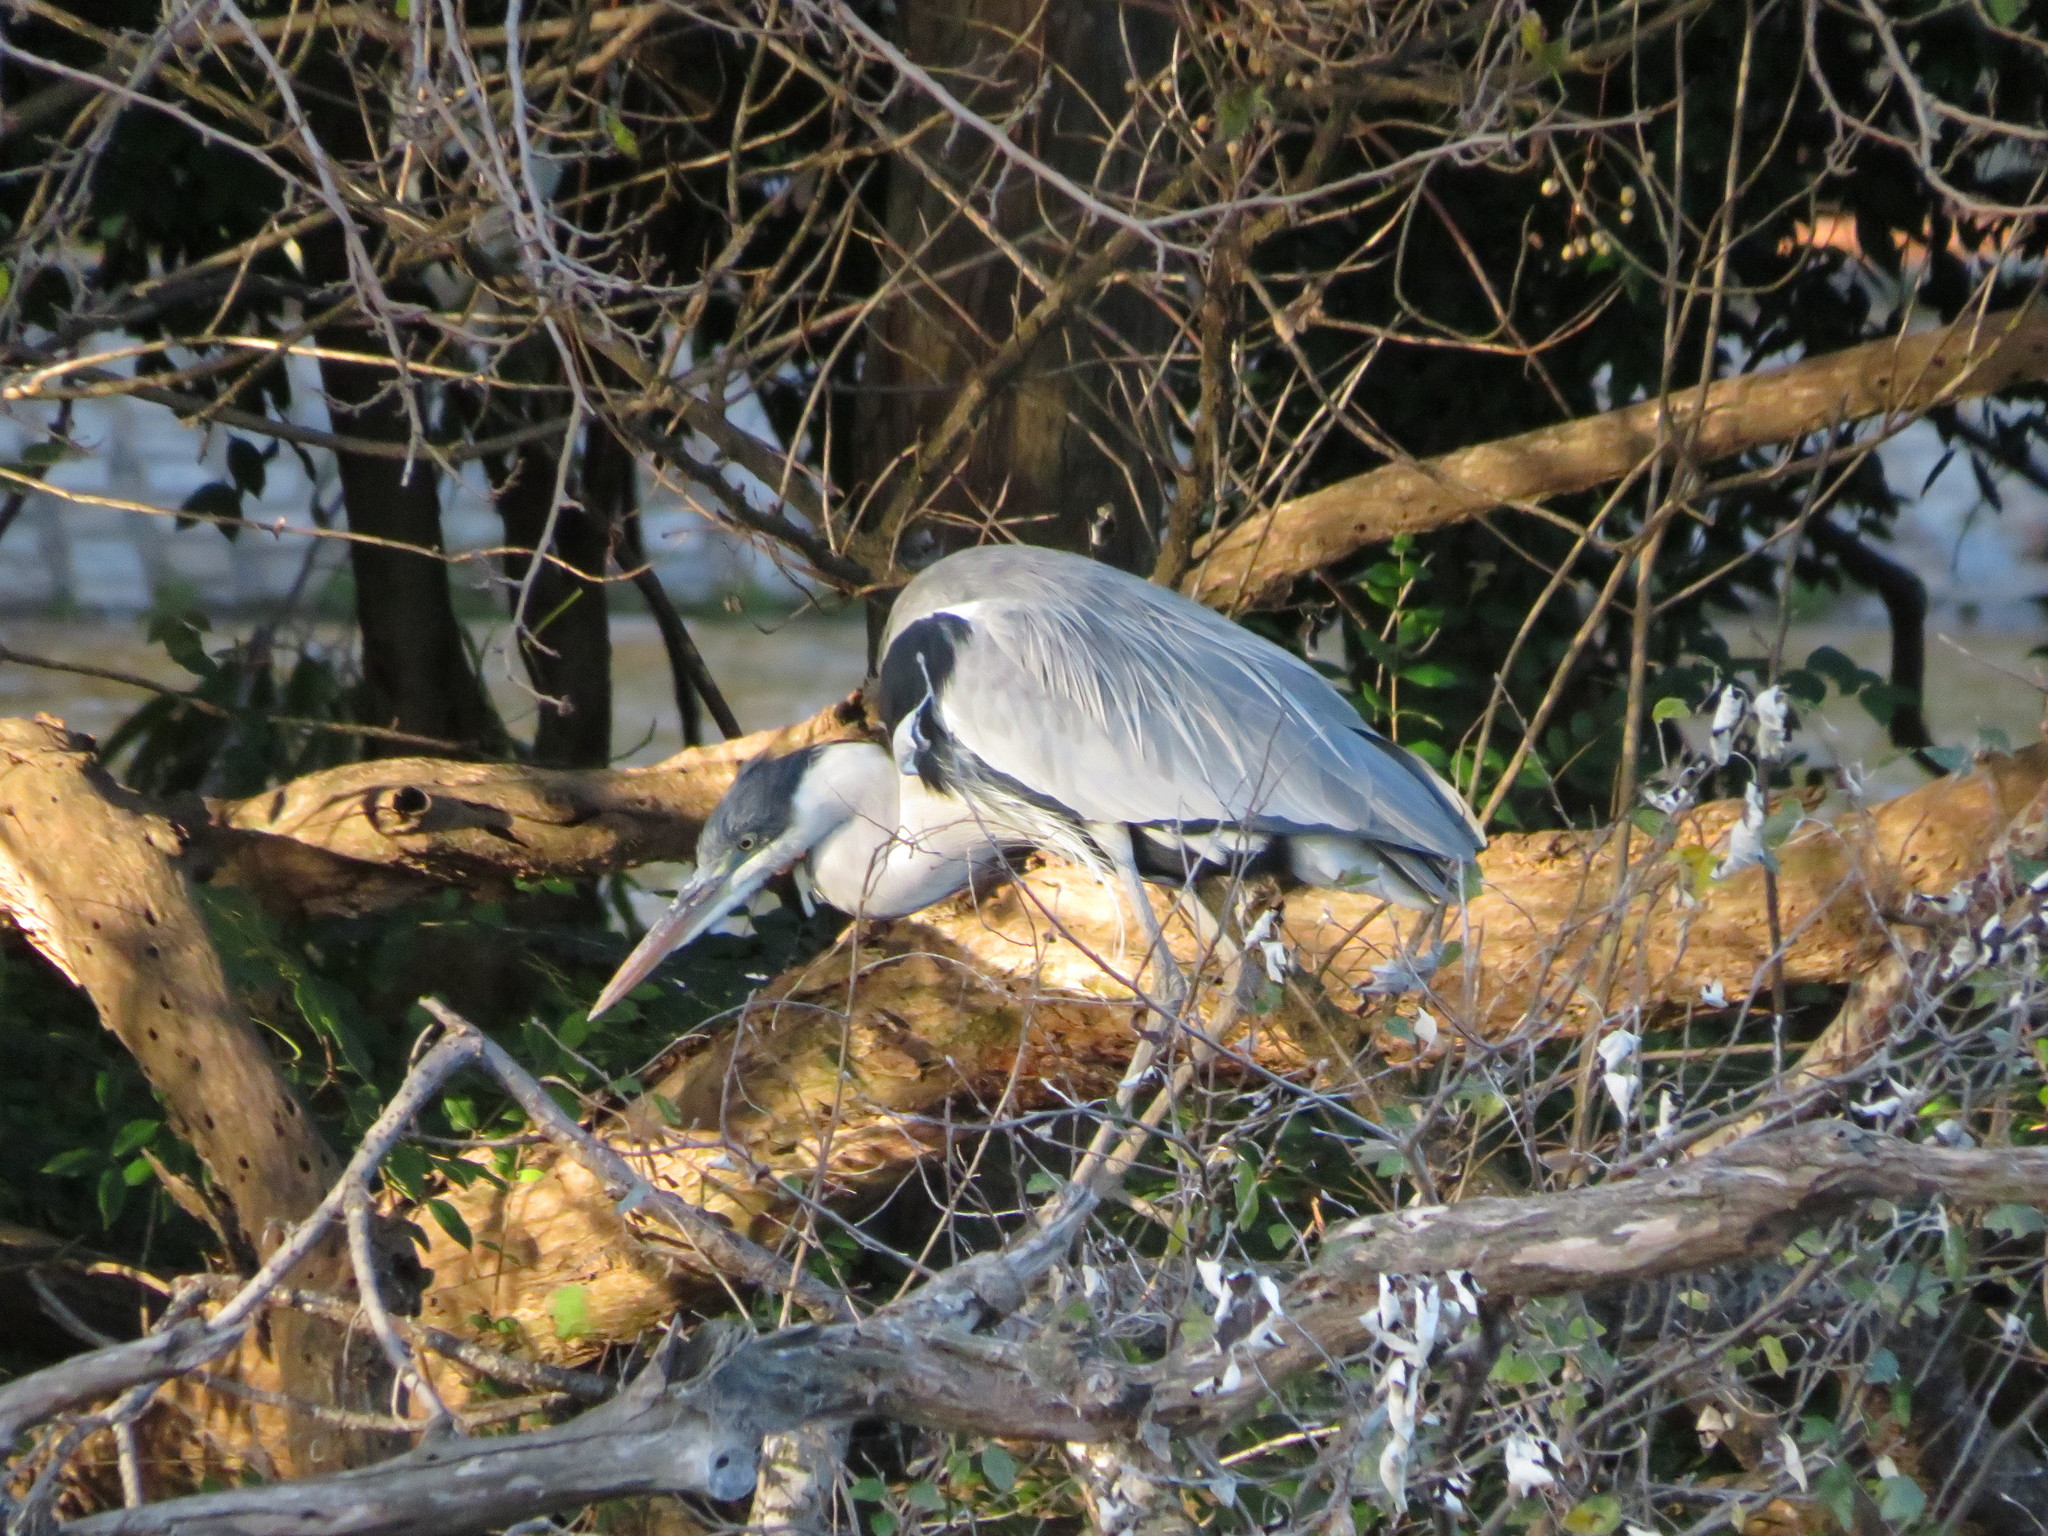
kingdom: Animalia
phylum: Chordata
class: Aves
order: Pelecaniformes
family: Ardeidae
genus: Ardea
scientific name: Ardea cocoi
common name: Cocoi heron
